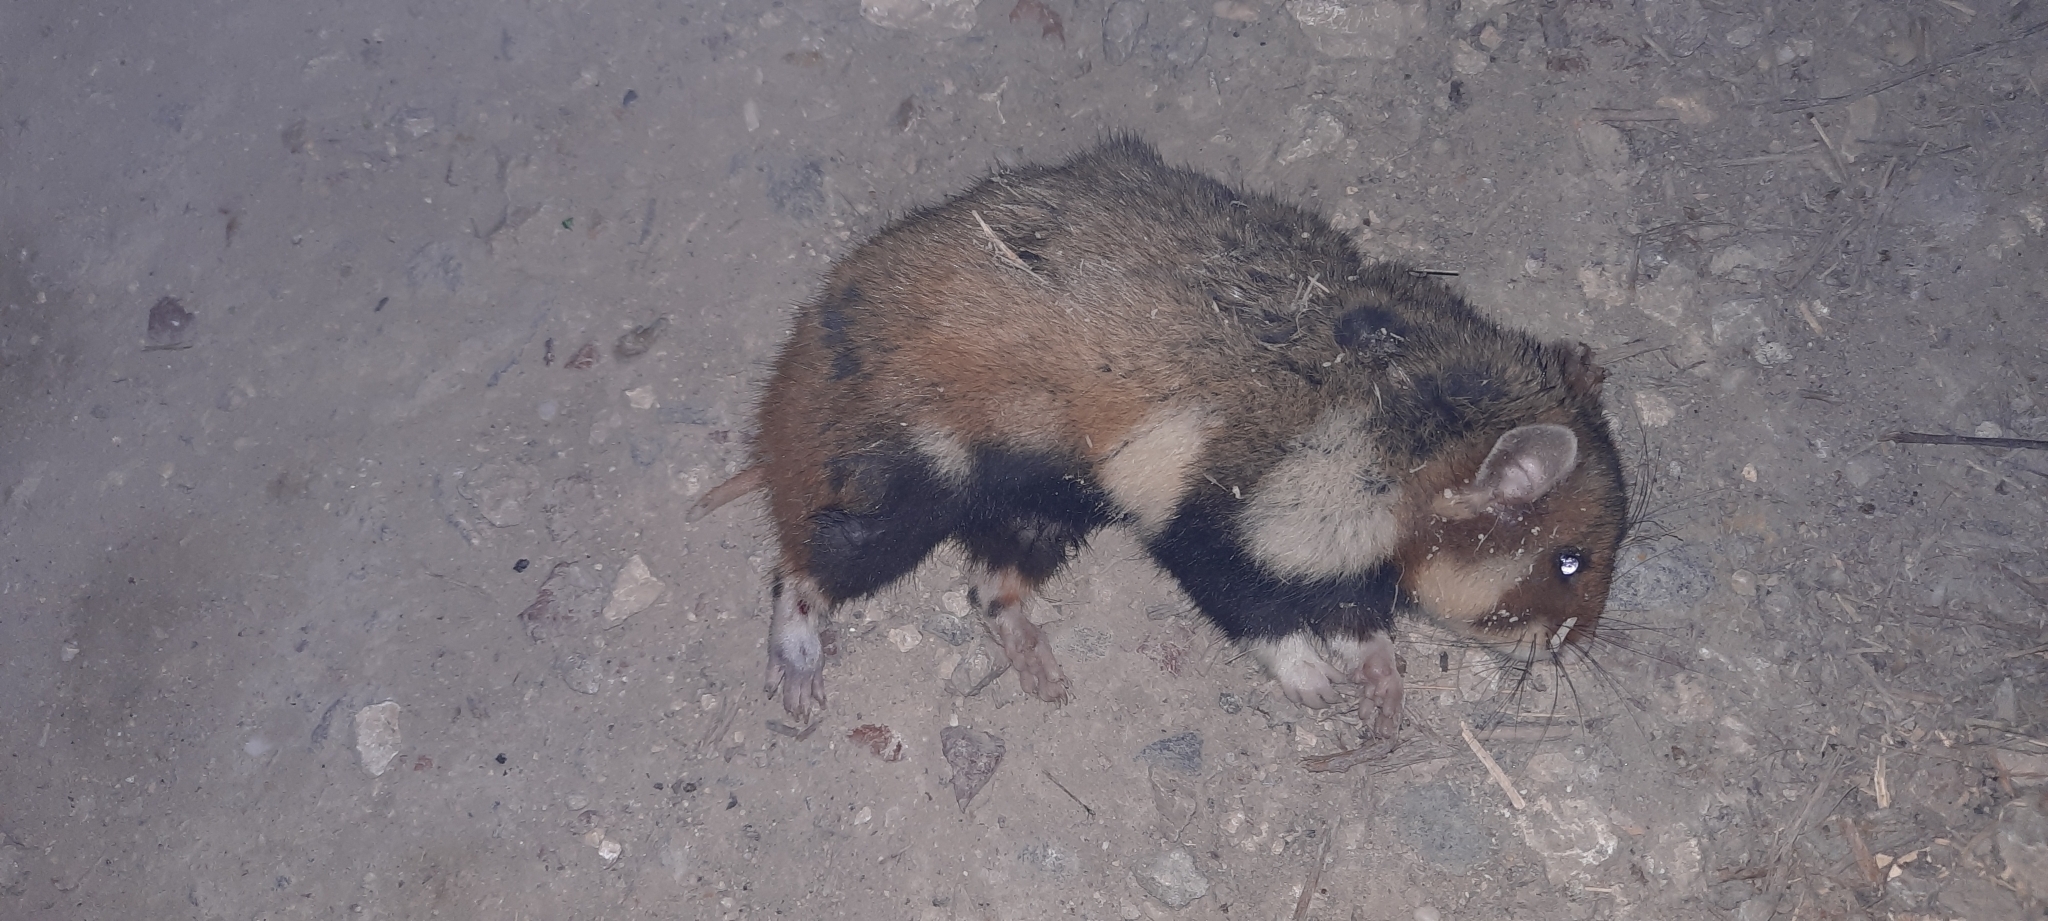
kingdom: Animalia
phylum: Chordata
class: Mammalia
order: Rodentia
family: Cricetidae
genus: Cricetus
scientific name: Cricetus cricetus
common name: Common hamster
